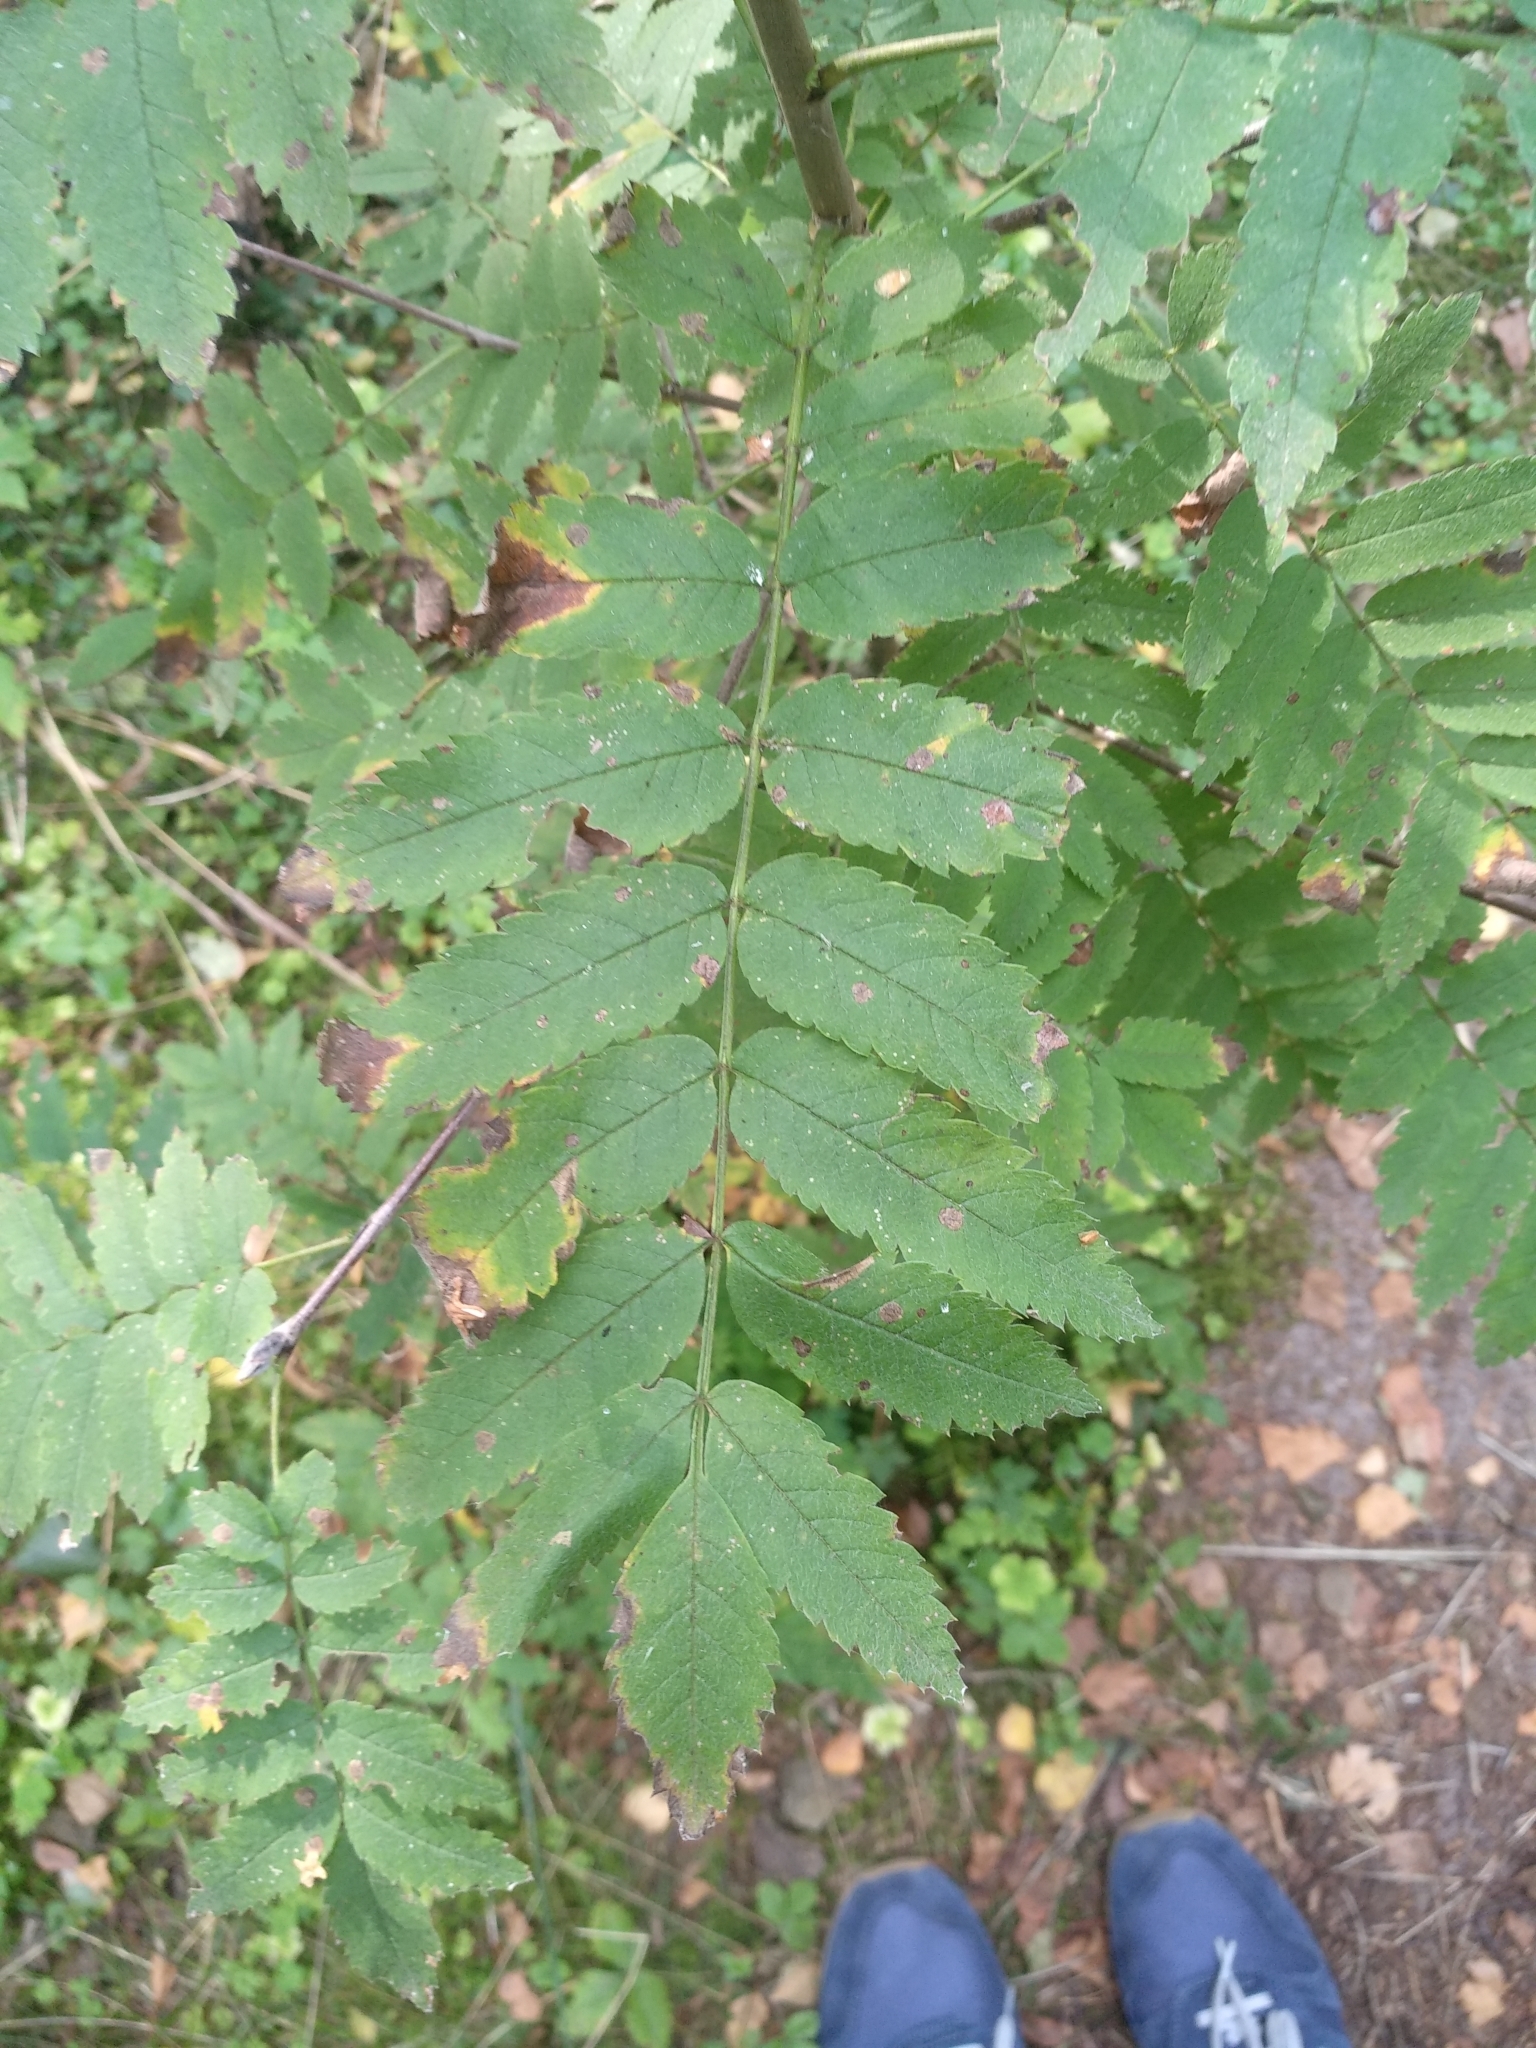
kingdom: Plantae
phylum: Tracheophyta
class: Magnoliopsida
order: Rosales
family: Rosaceae
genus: Sorbus
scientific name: Sorbus aucuparia
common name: Rowan
